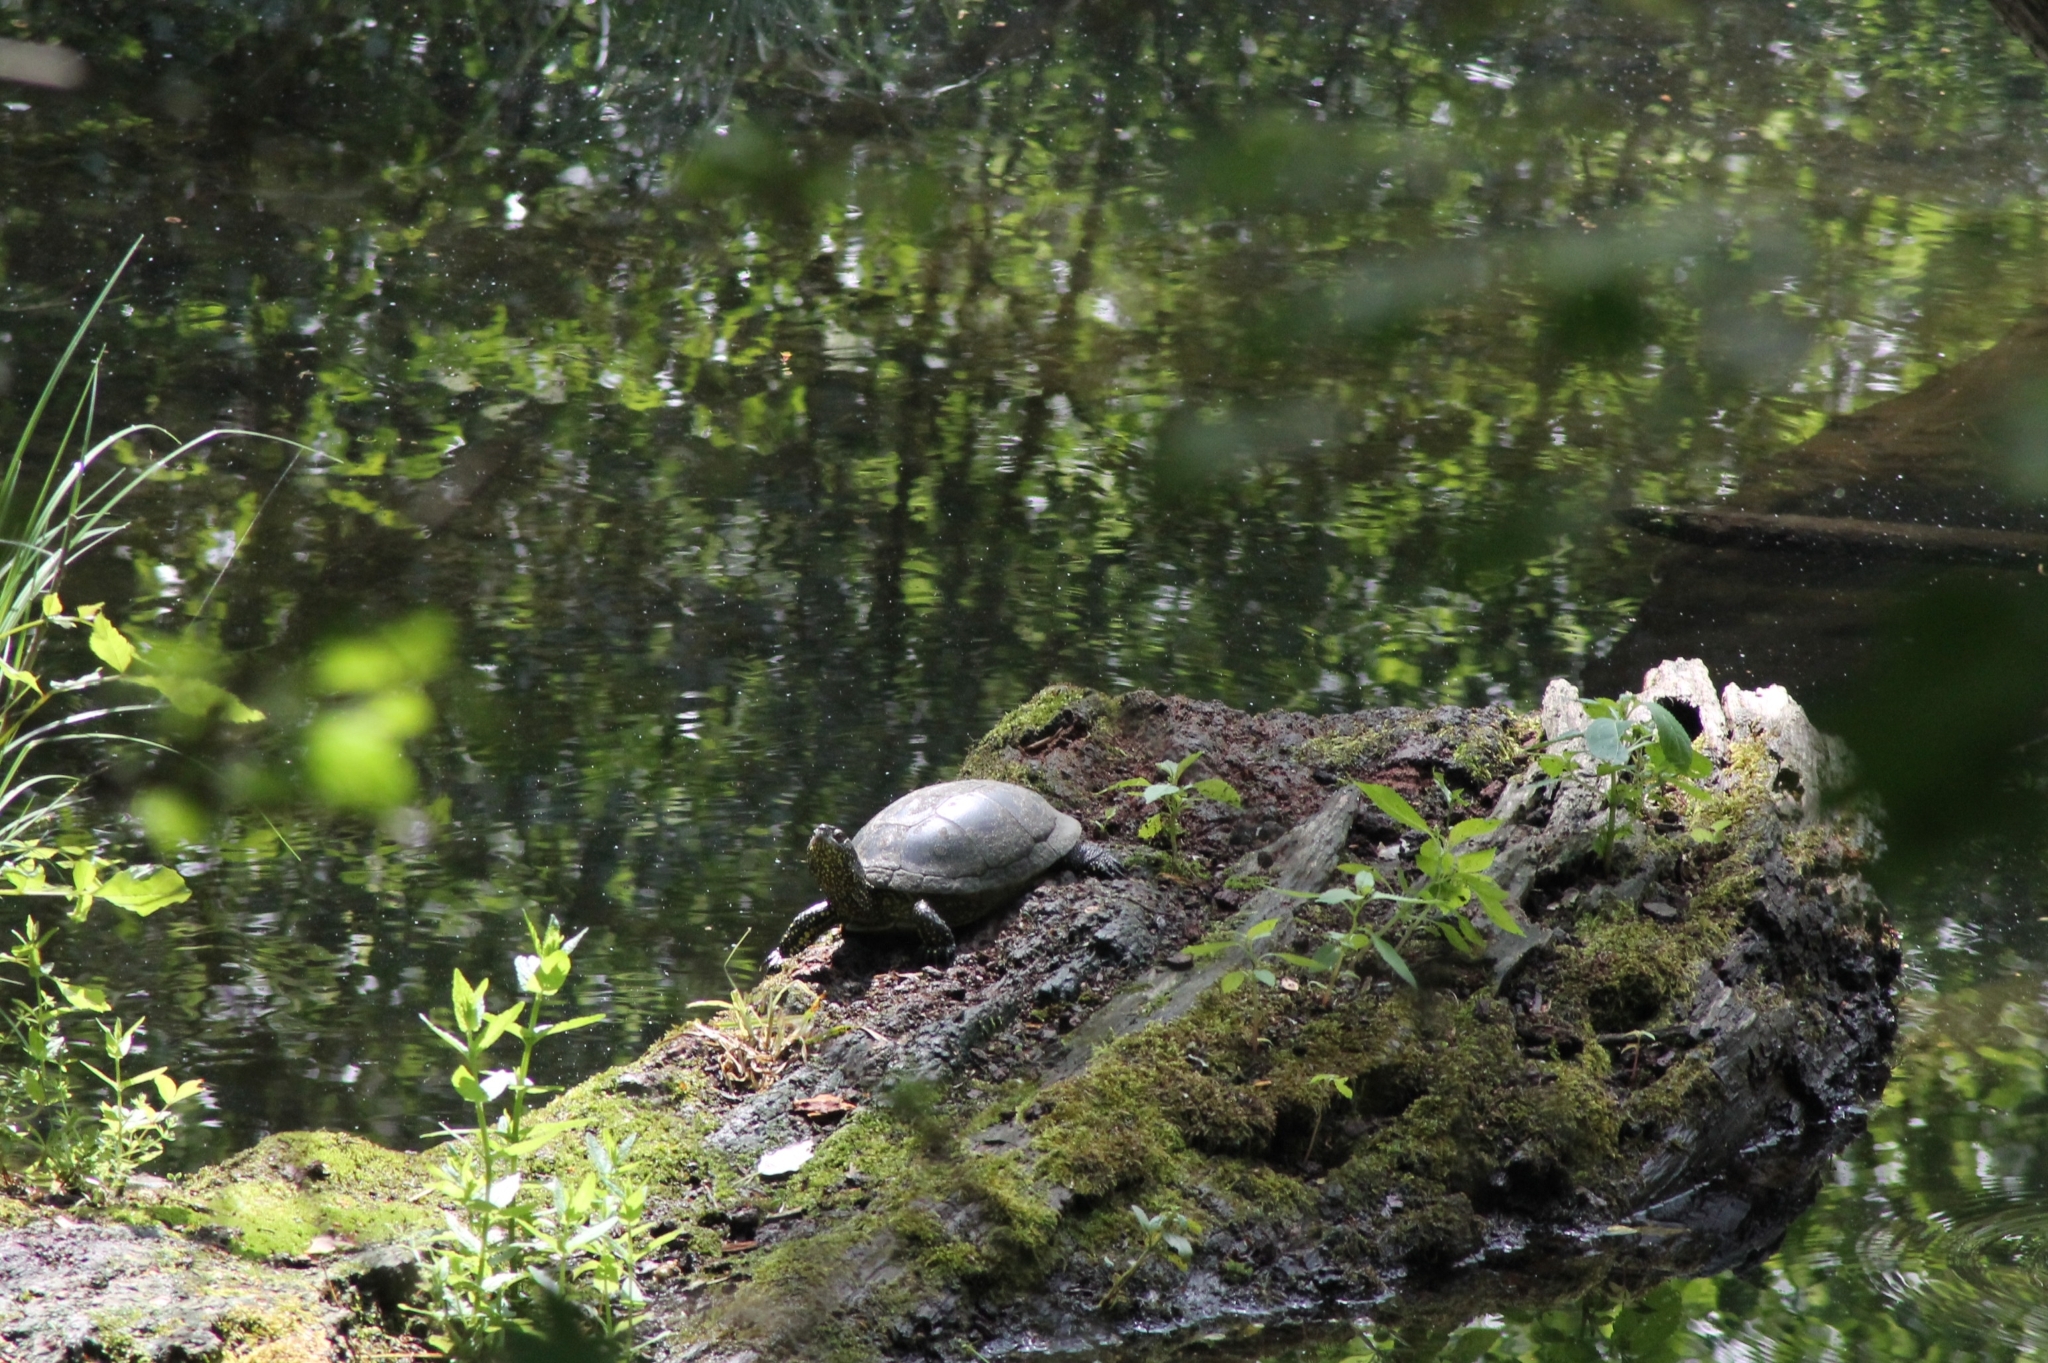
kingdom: Animalia
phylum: Chordata
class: Testudines
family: Emydidae
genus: Emys
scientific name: Emys orbicularis
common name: European pond turtle
